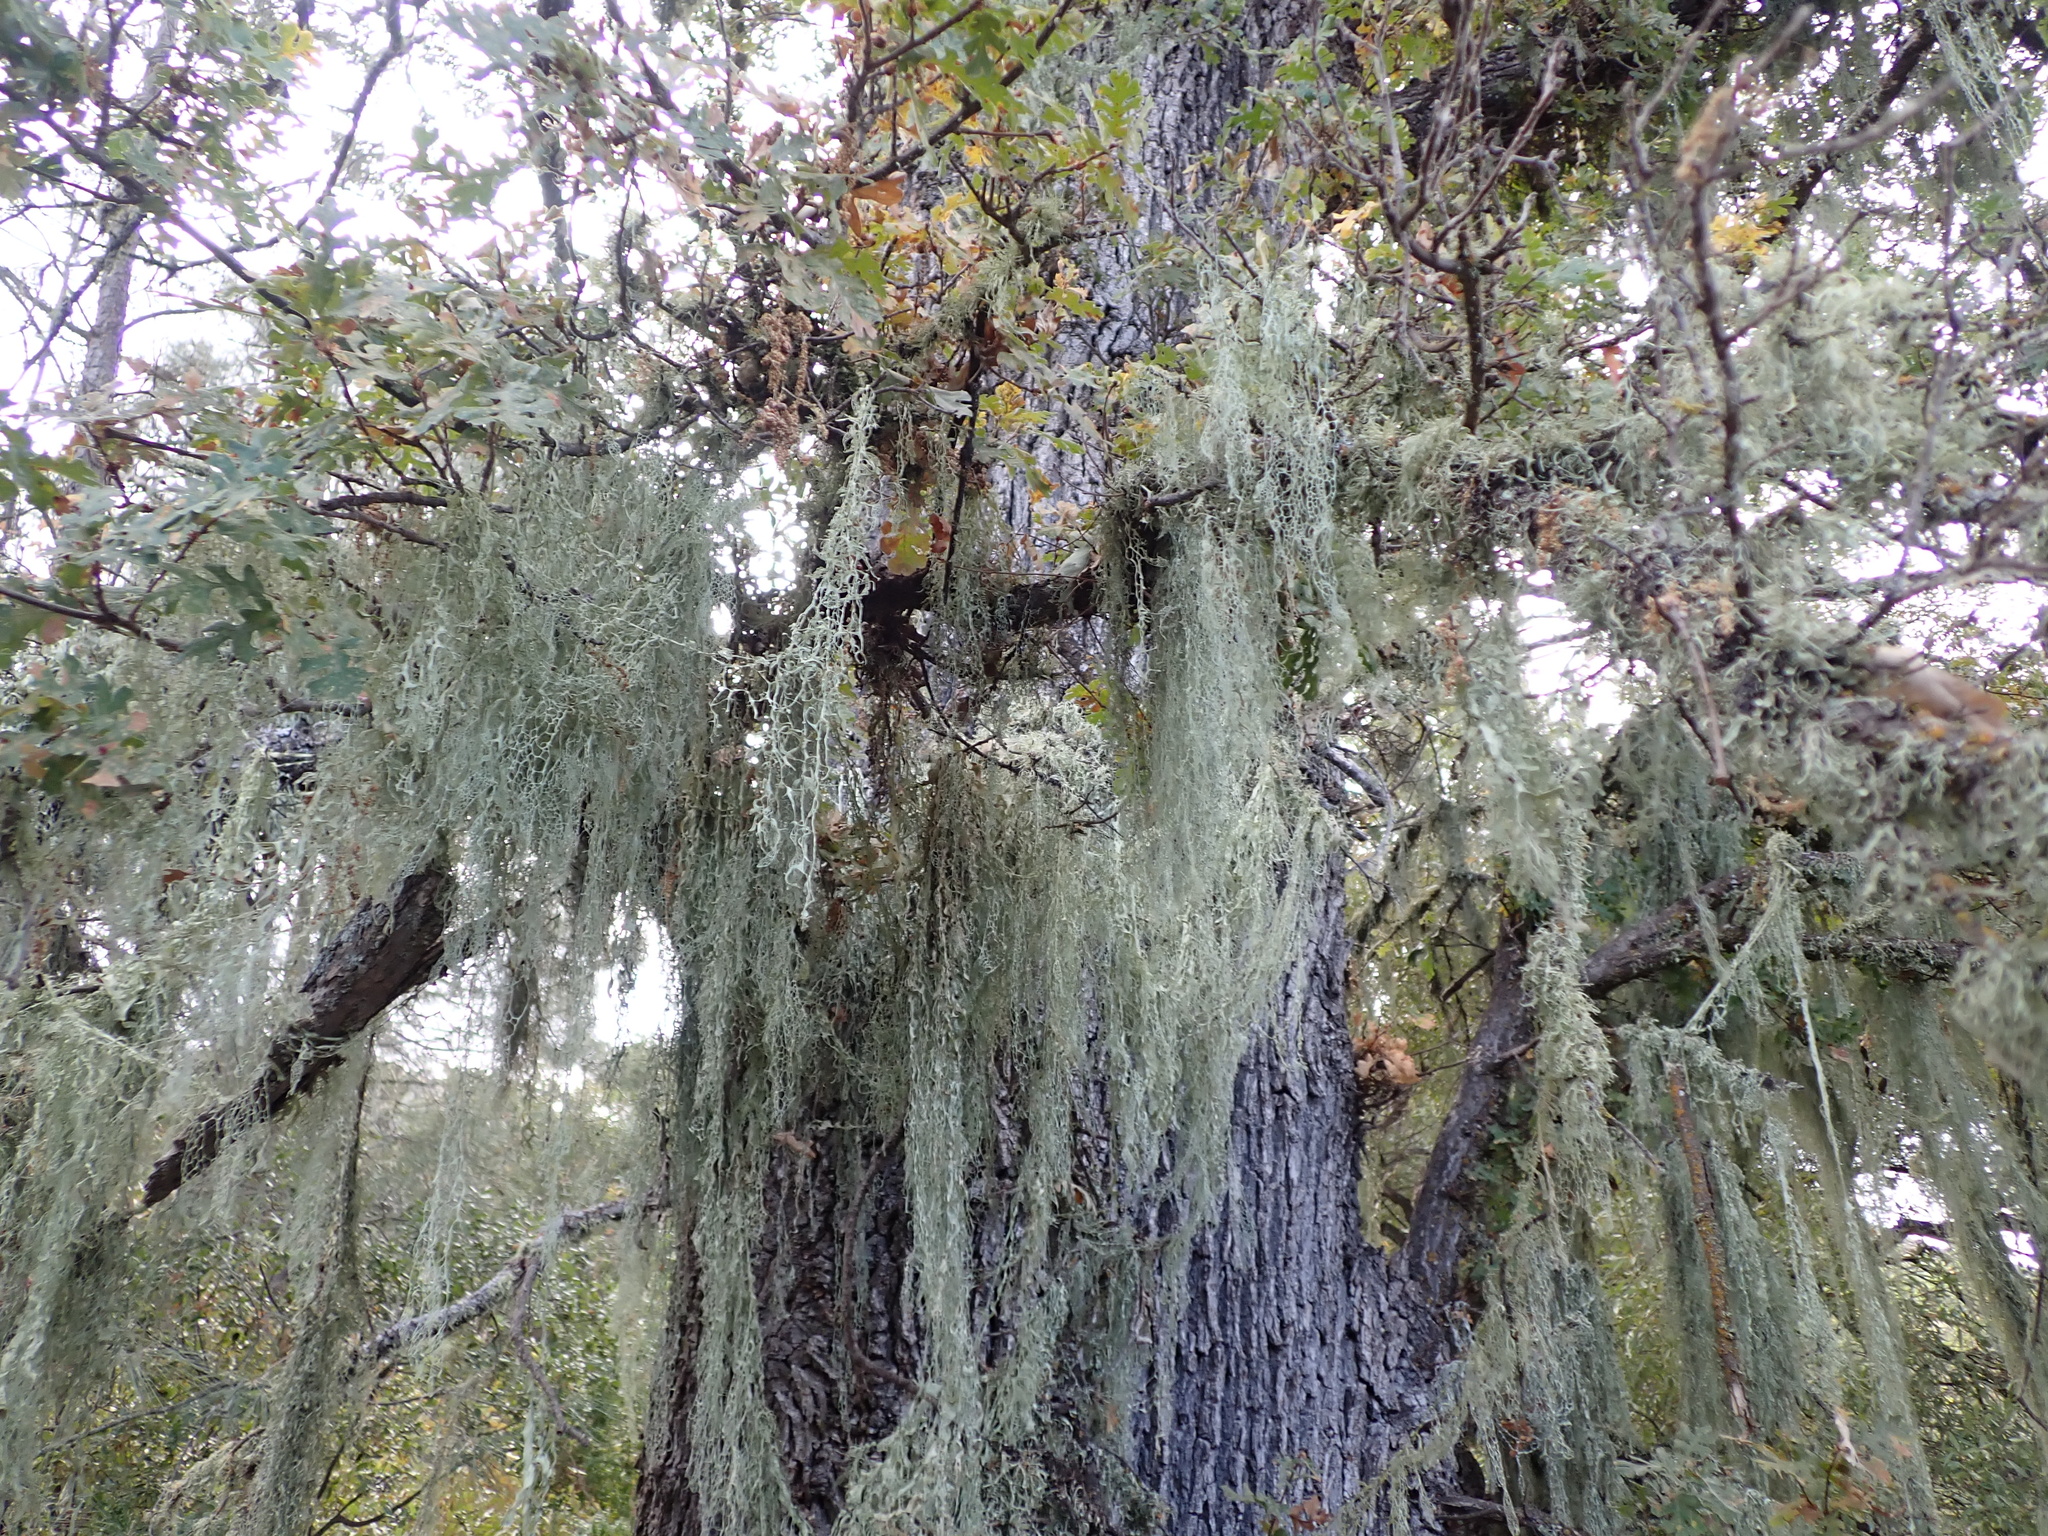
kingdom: Fungi
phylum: Ascomycota
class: Lecanoromycetes
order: Lecanorales
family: Ramalinaceae
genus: Ramalina
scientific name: Ramalina menziesii
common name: Lace lichen
